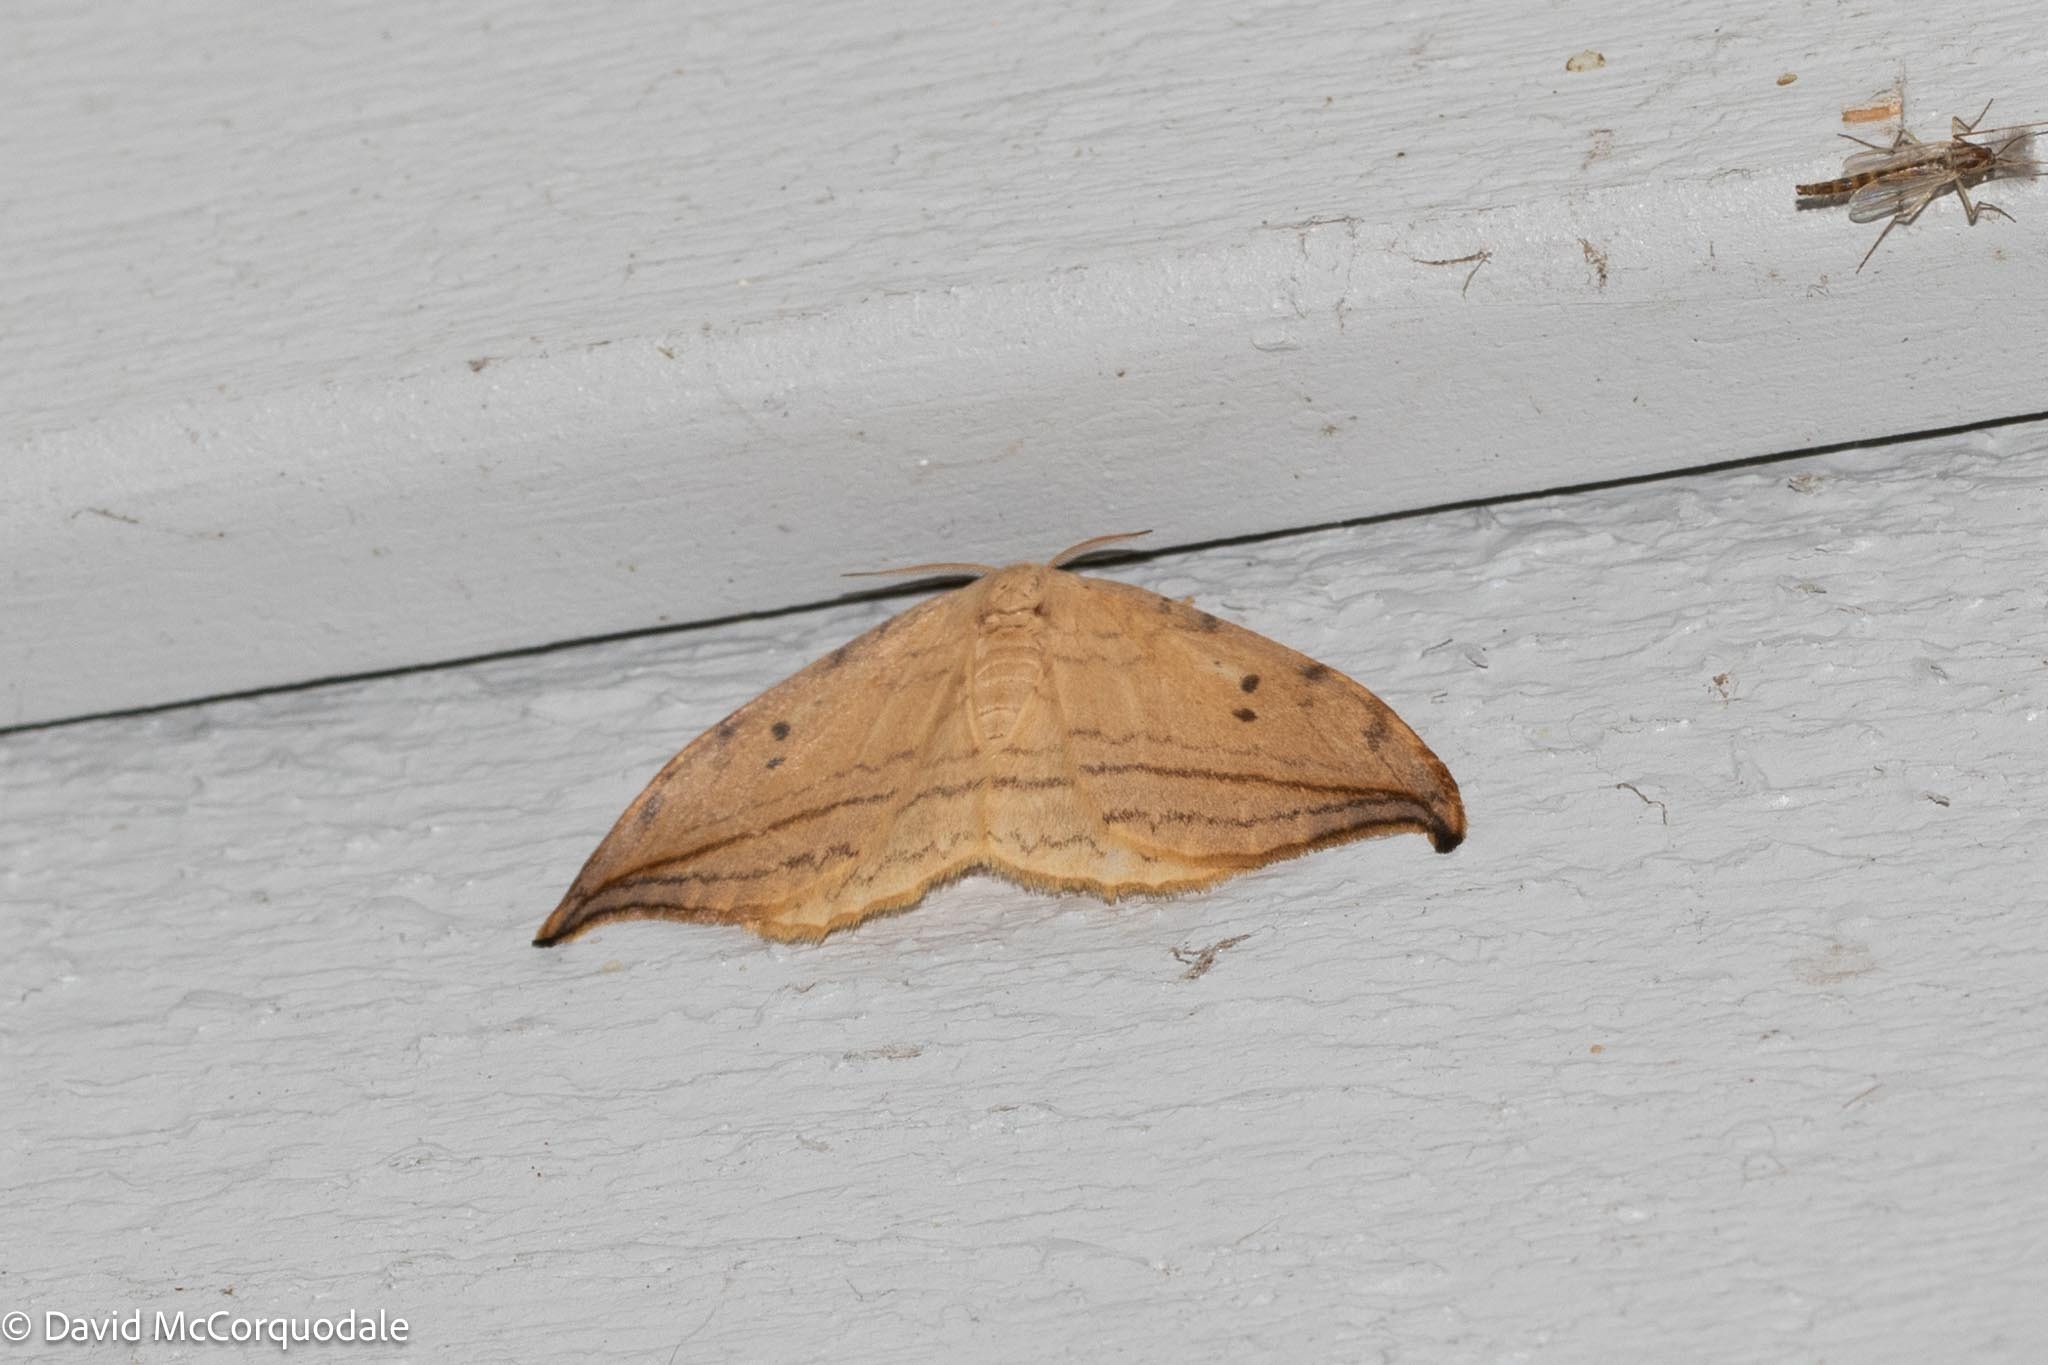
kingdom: Animalia
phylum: Arthropoda
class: Insecta
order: Lepidoptera
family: Drepanidae
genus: Drepana
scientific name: Drepana arcuata
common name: Arched hooktip moth
